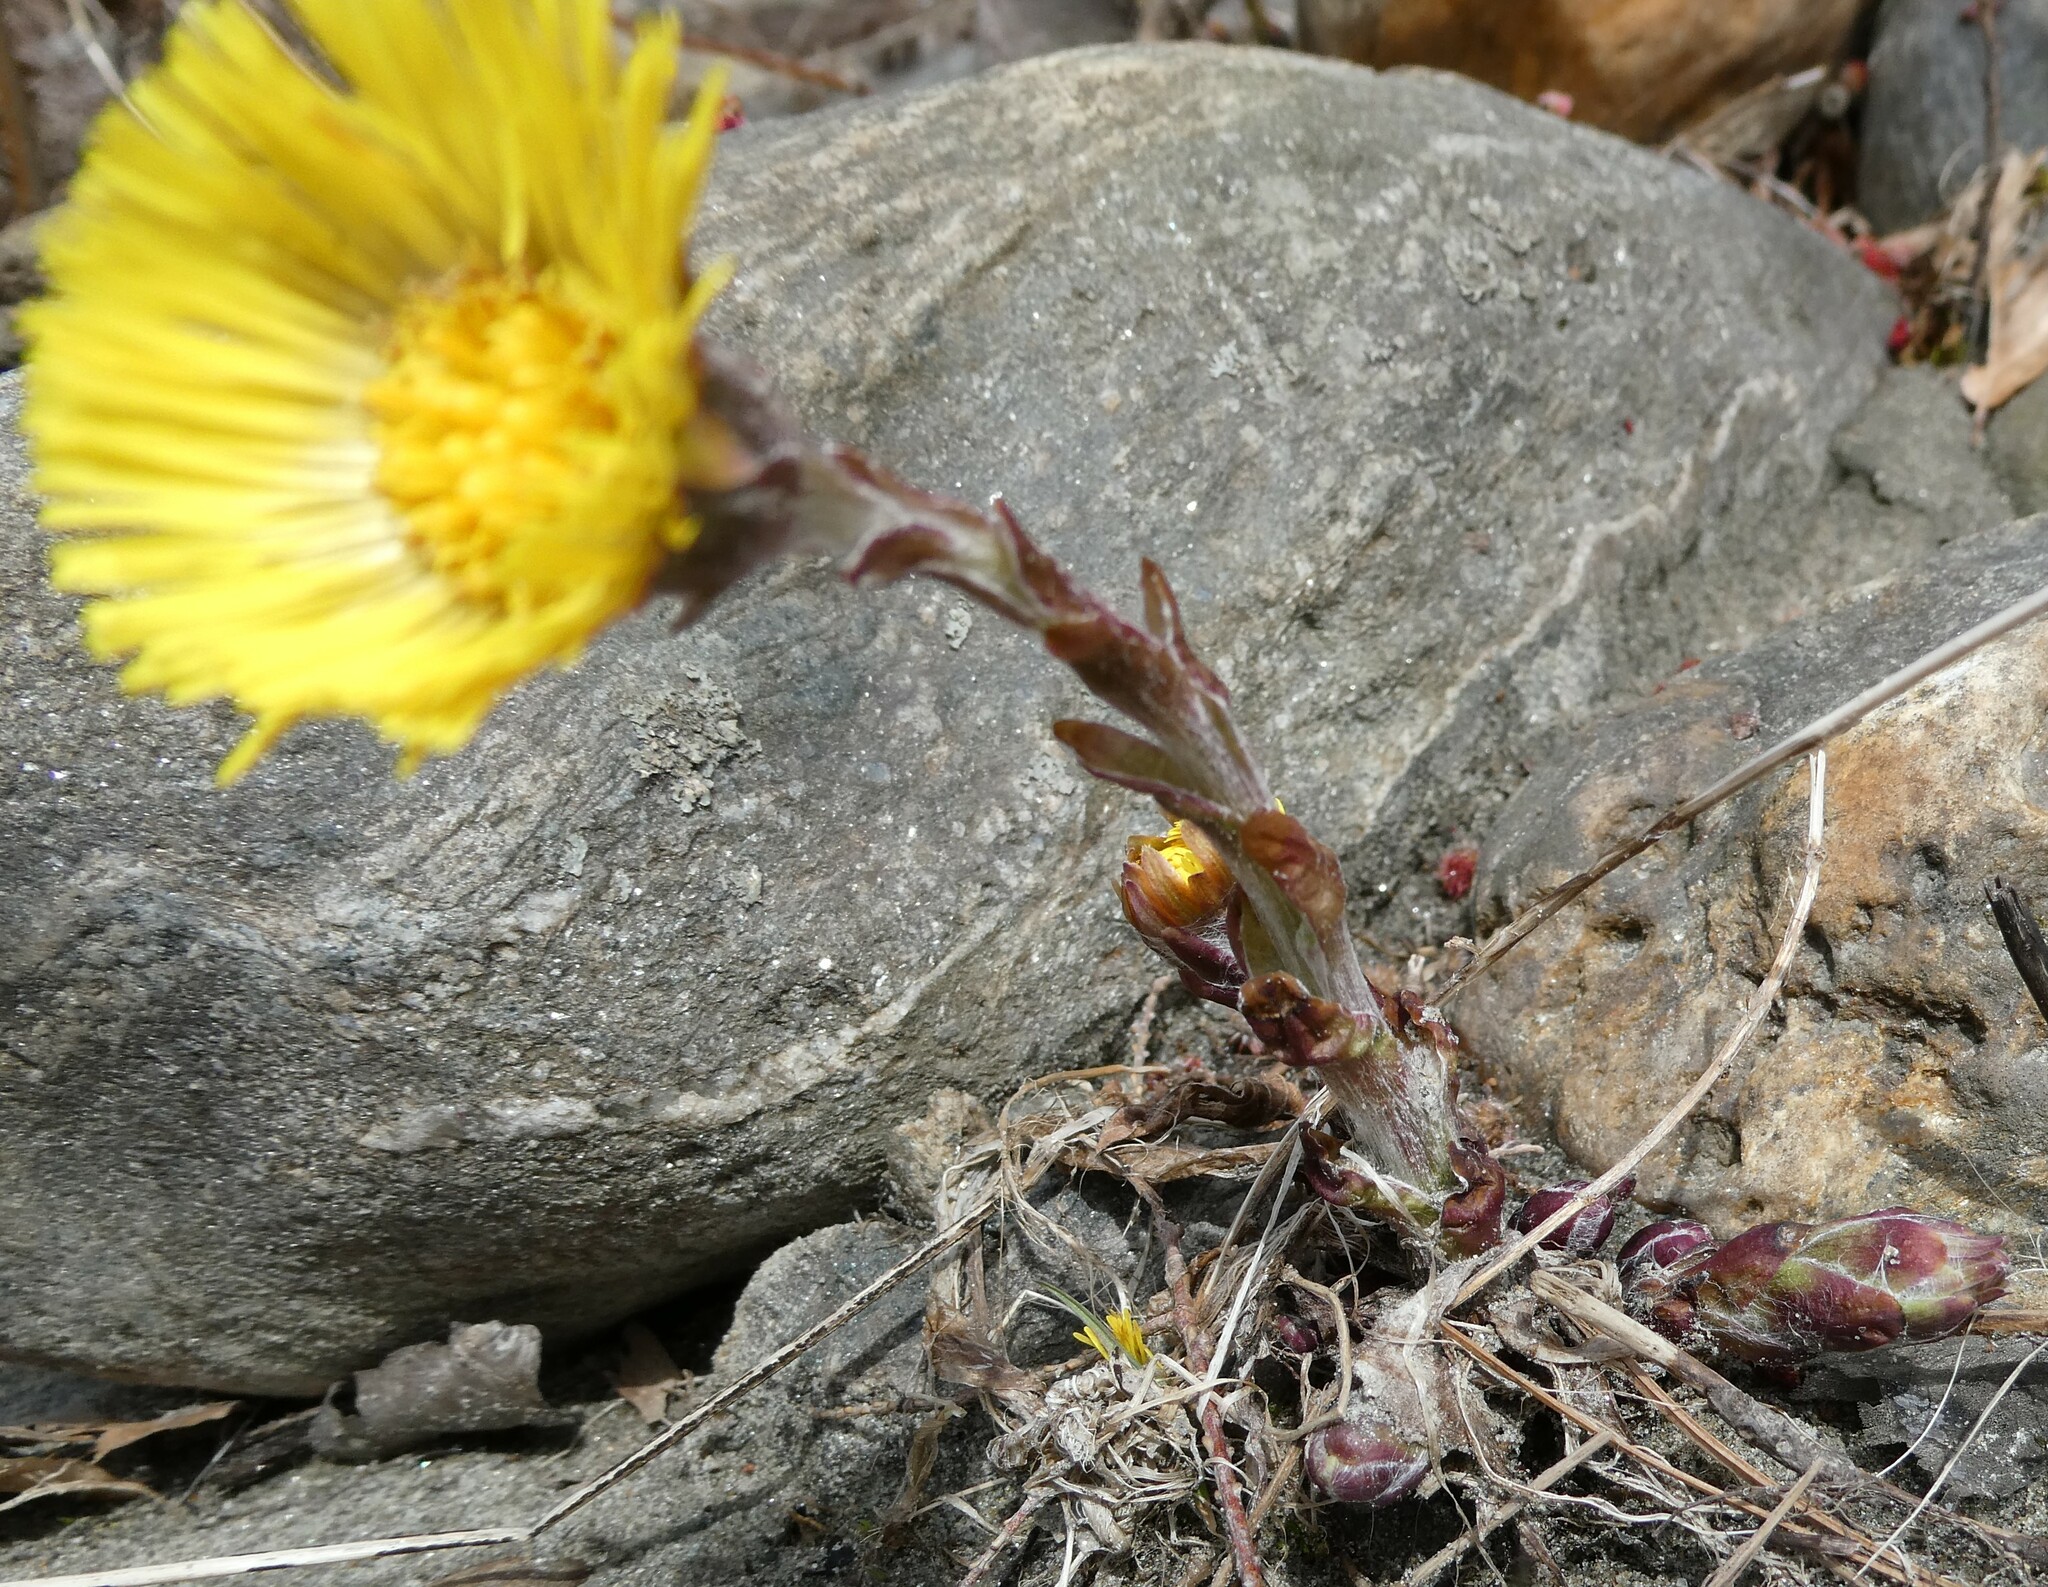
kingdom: Plantae
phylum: Tracheophyta
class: Magnoliopsida
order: Asterales
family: Asteraceae
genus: Tussilago
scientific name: Tussilago farfara
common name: Coltsfoot
